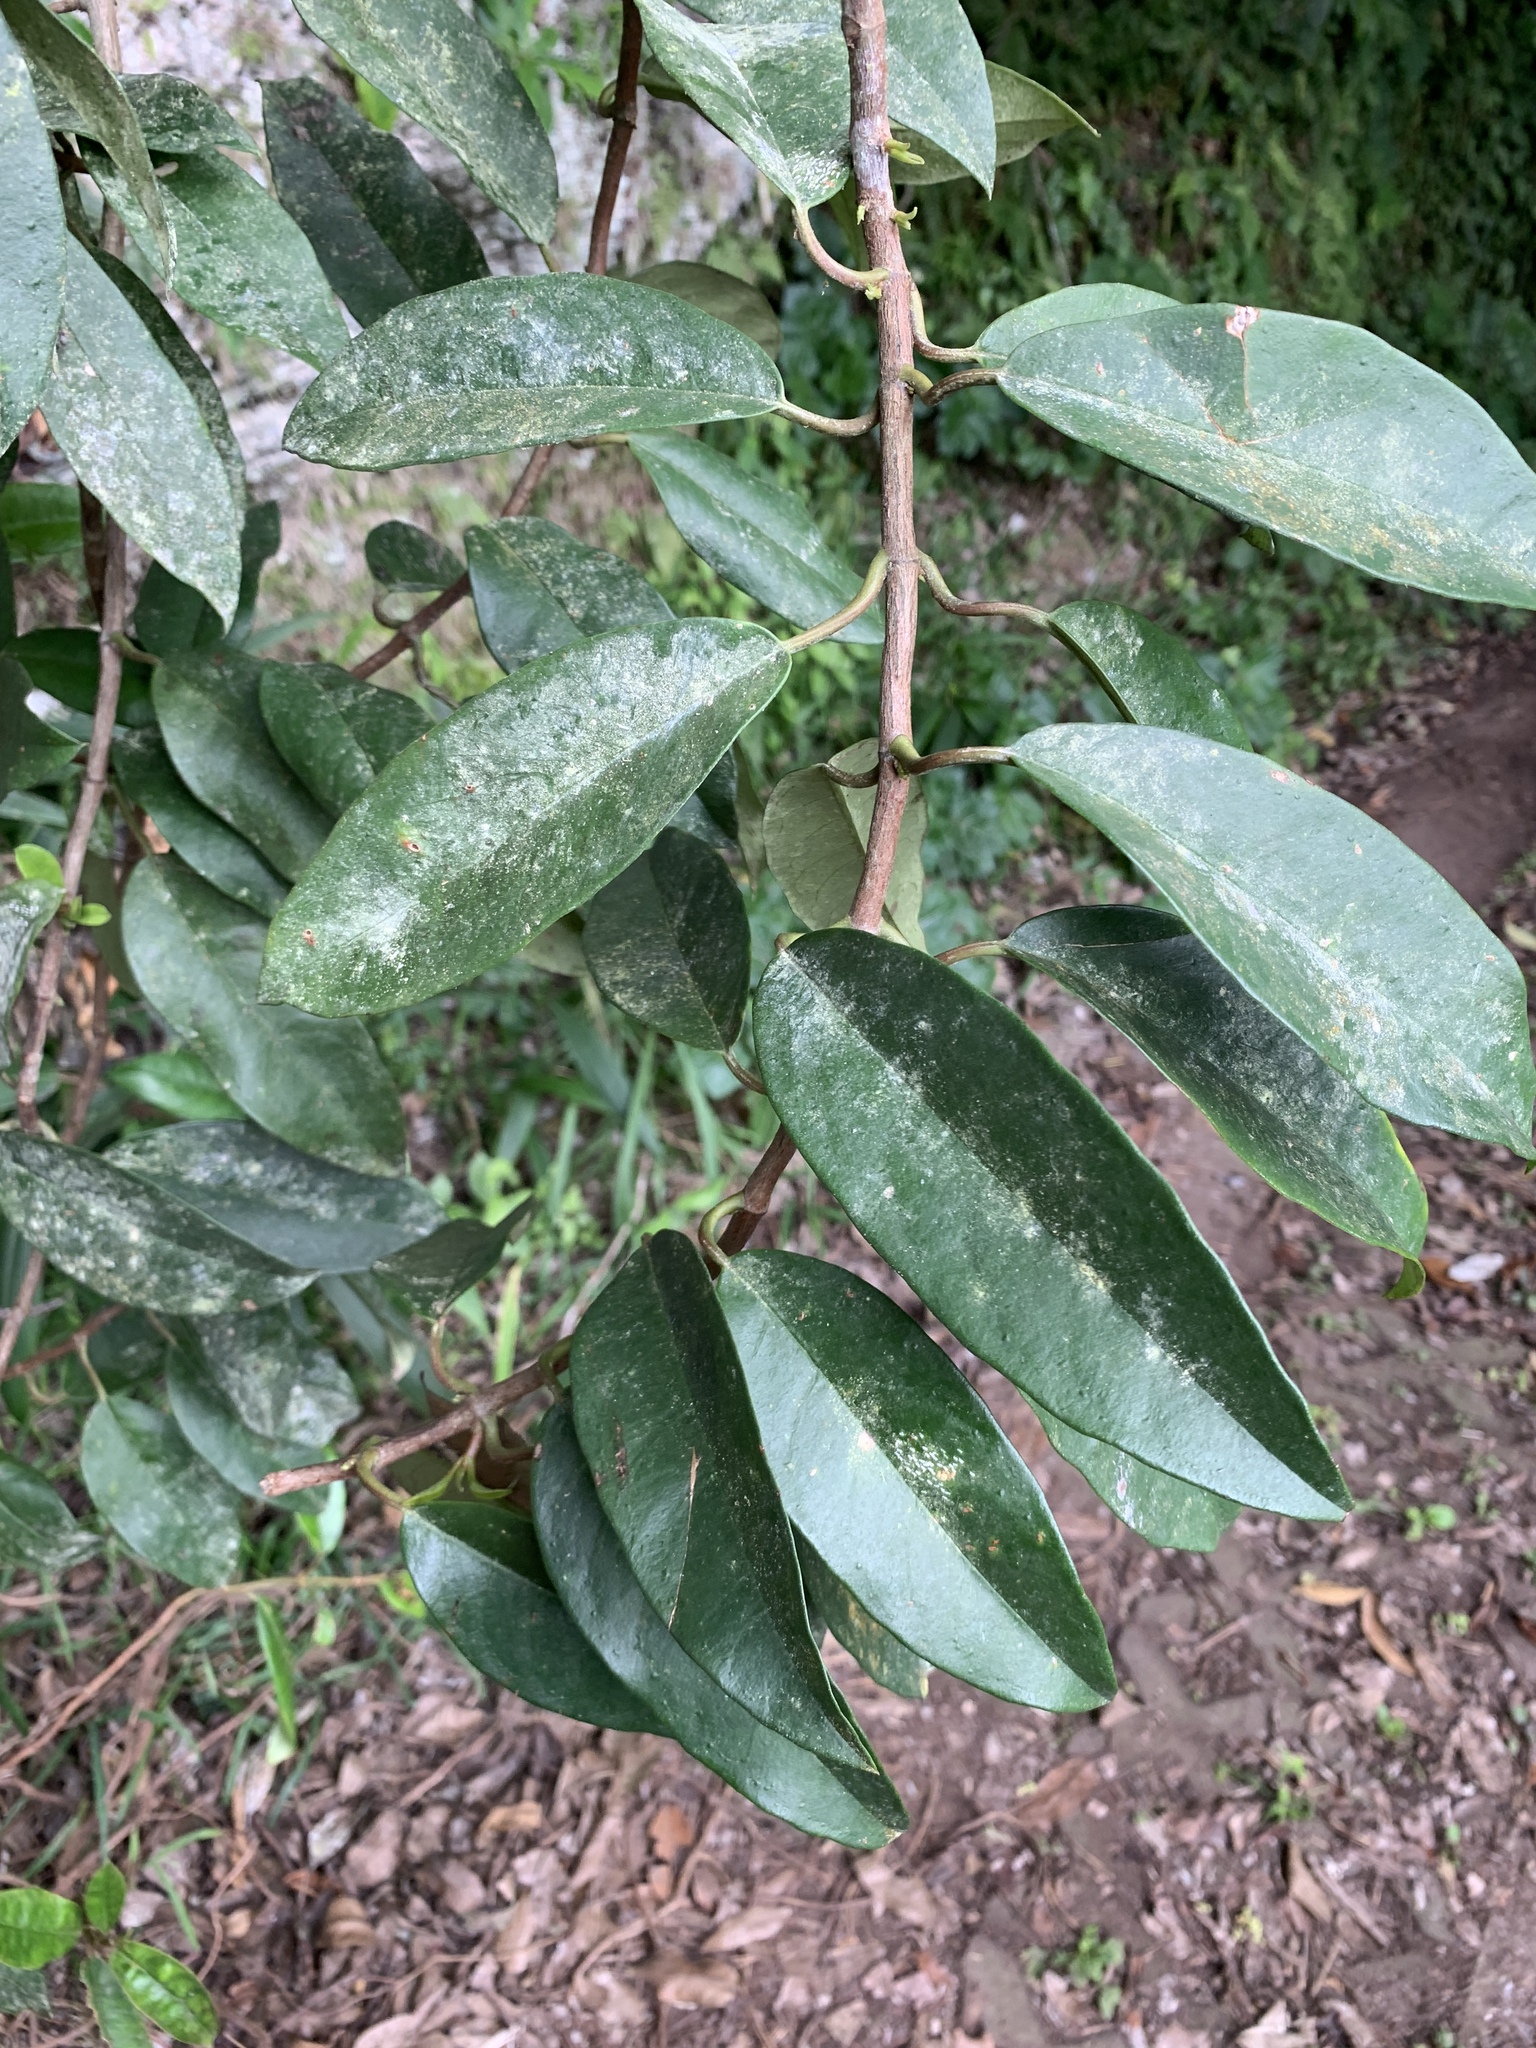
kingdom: Plantae
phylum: Tracheophyta
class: Magnoliopsida
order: Cornales
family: Hydrangeaceae
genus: Hydrangea
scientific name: Hydrangea viburnoides
